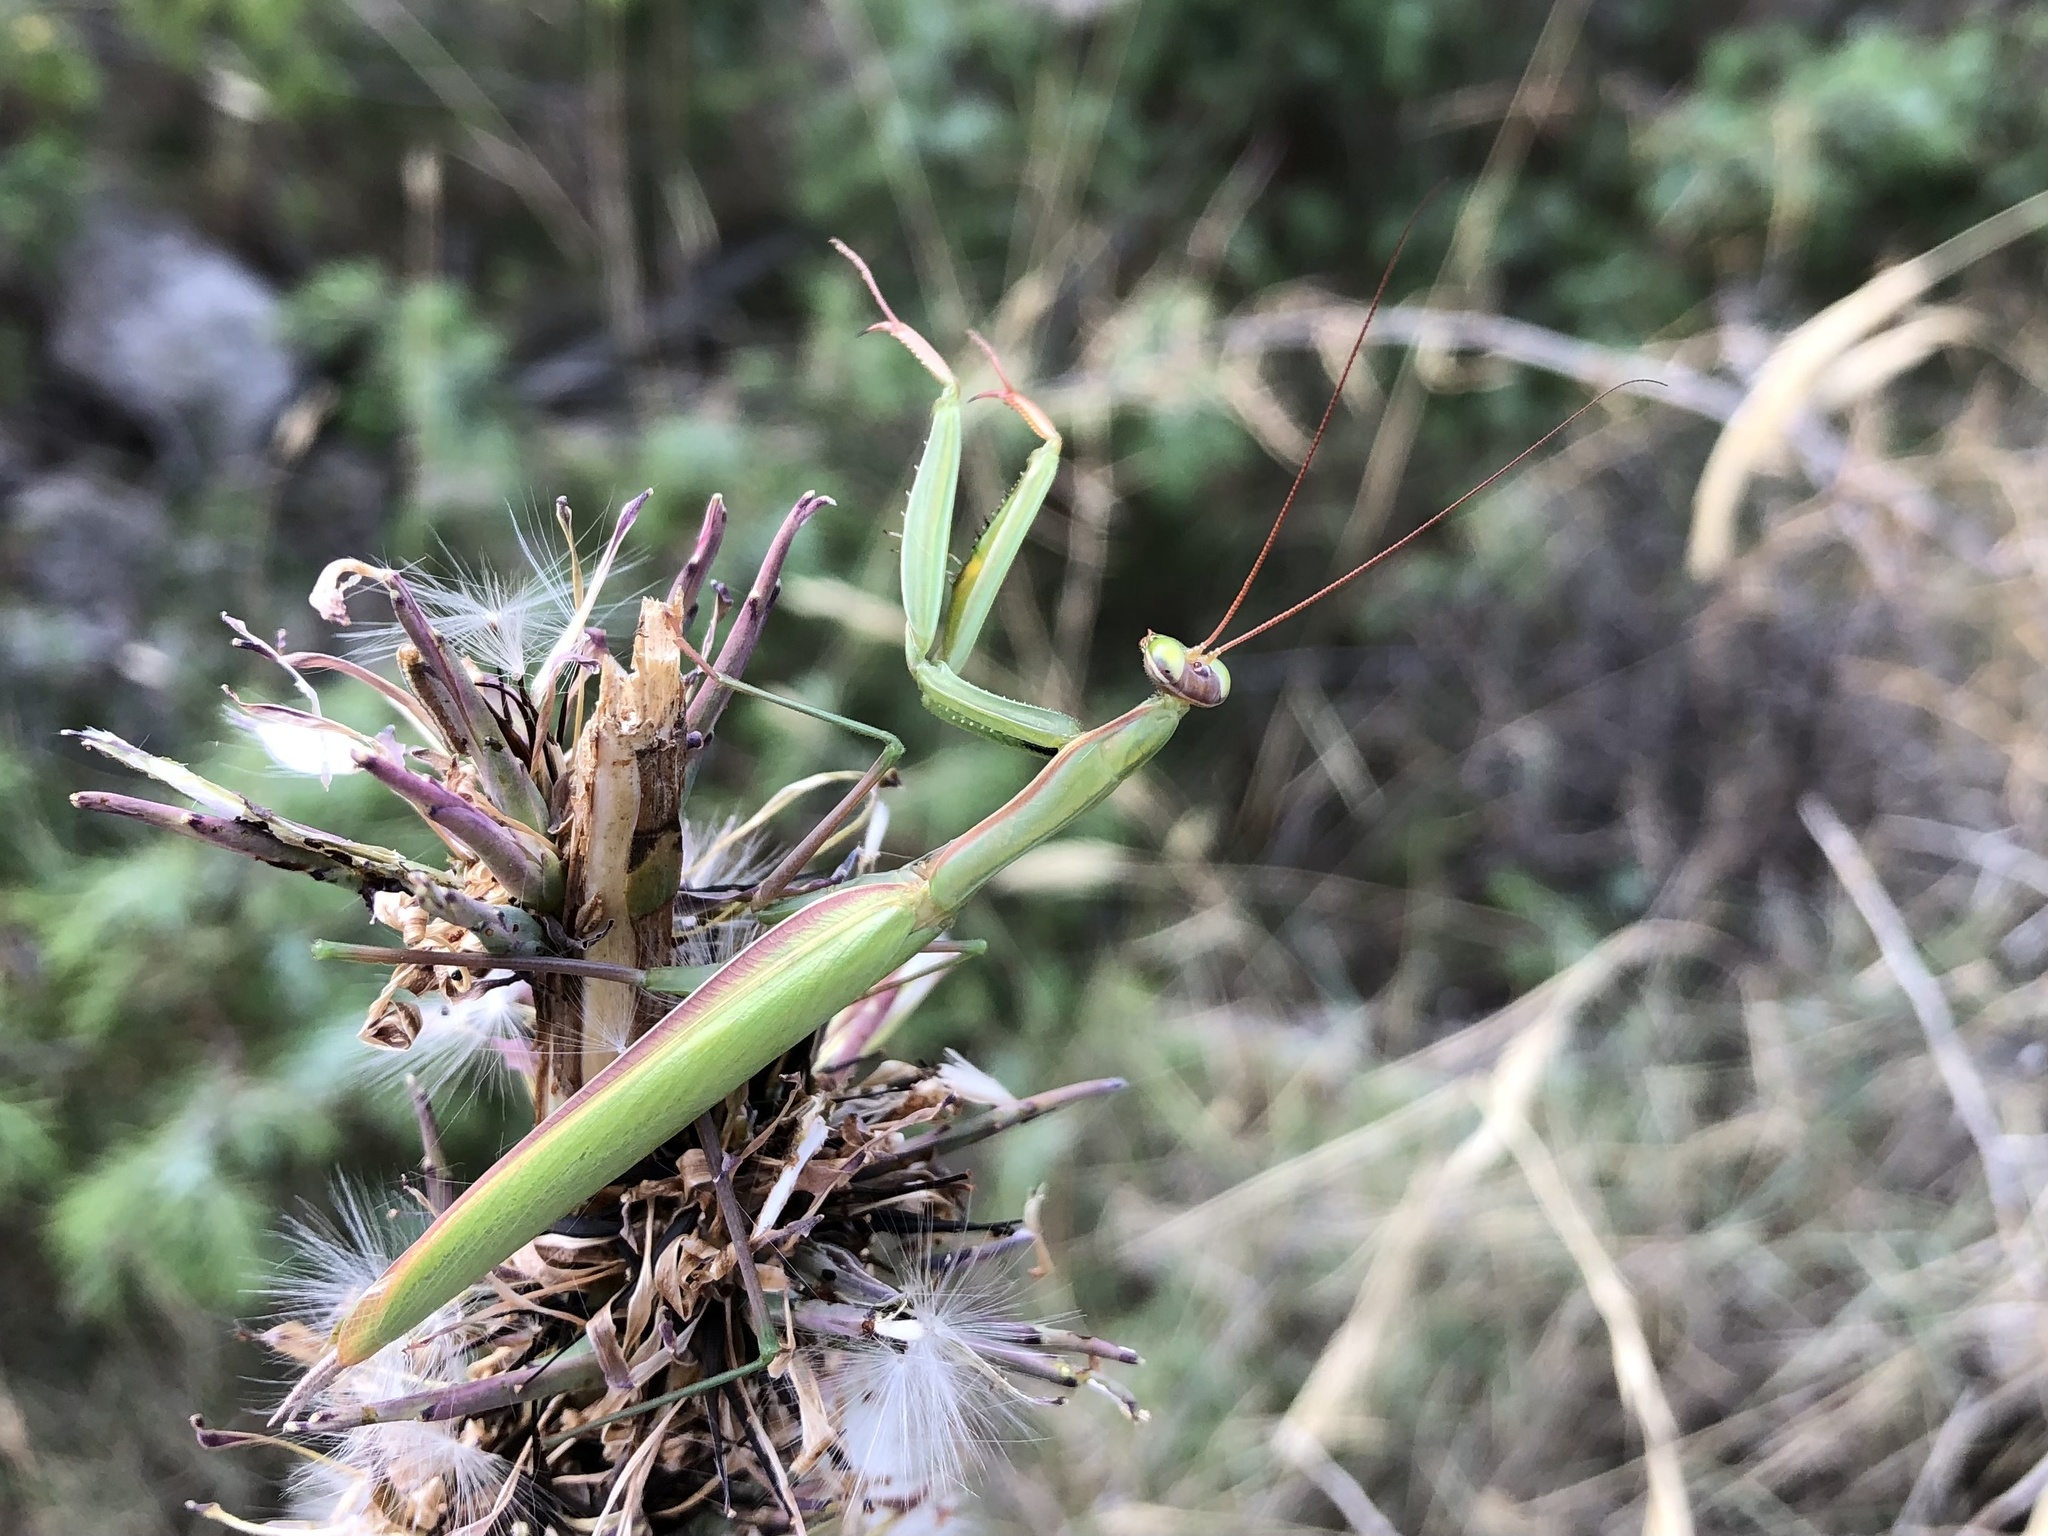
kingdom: Animalia
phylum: Arthropoda
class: Insecta
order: Mantodea
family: Mantidae
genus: Mantis
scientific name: Mantis religiosa
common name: Praying mantis
